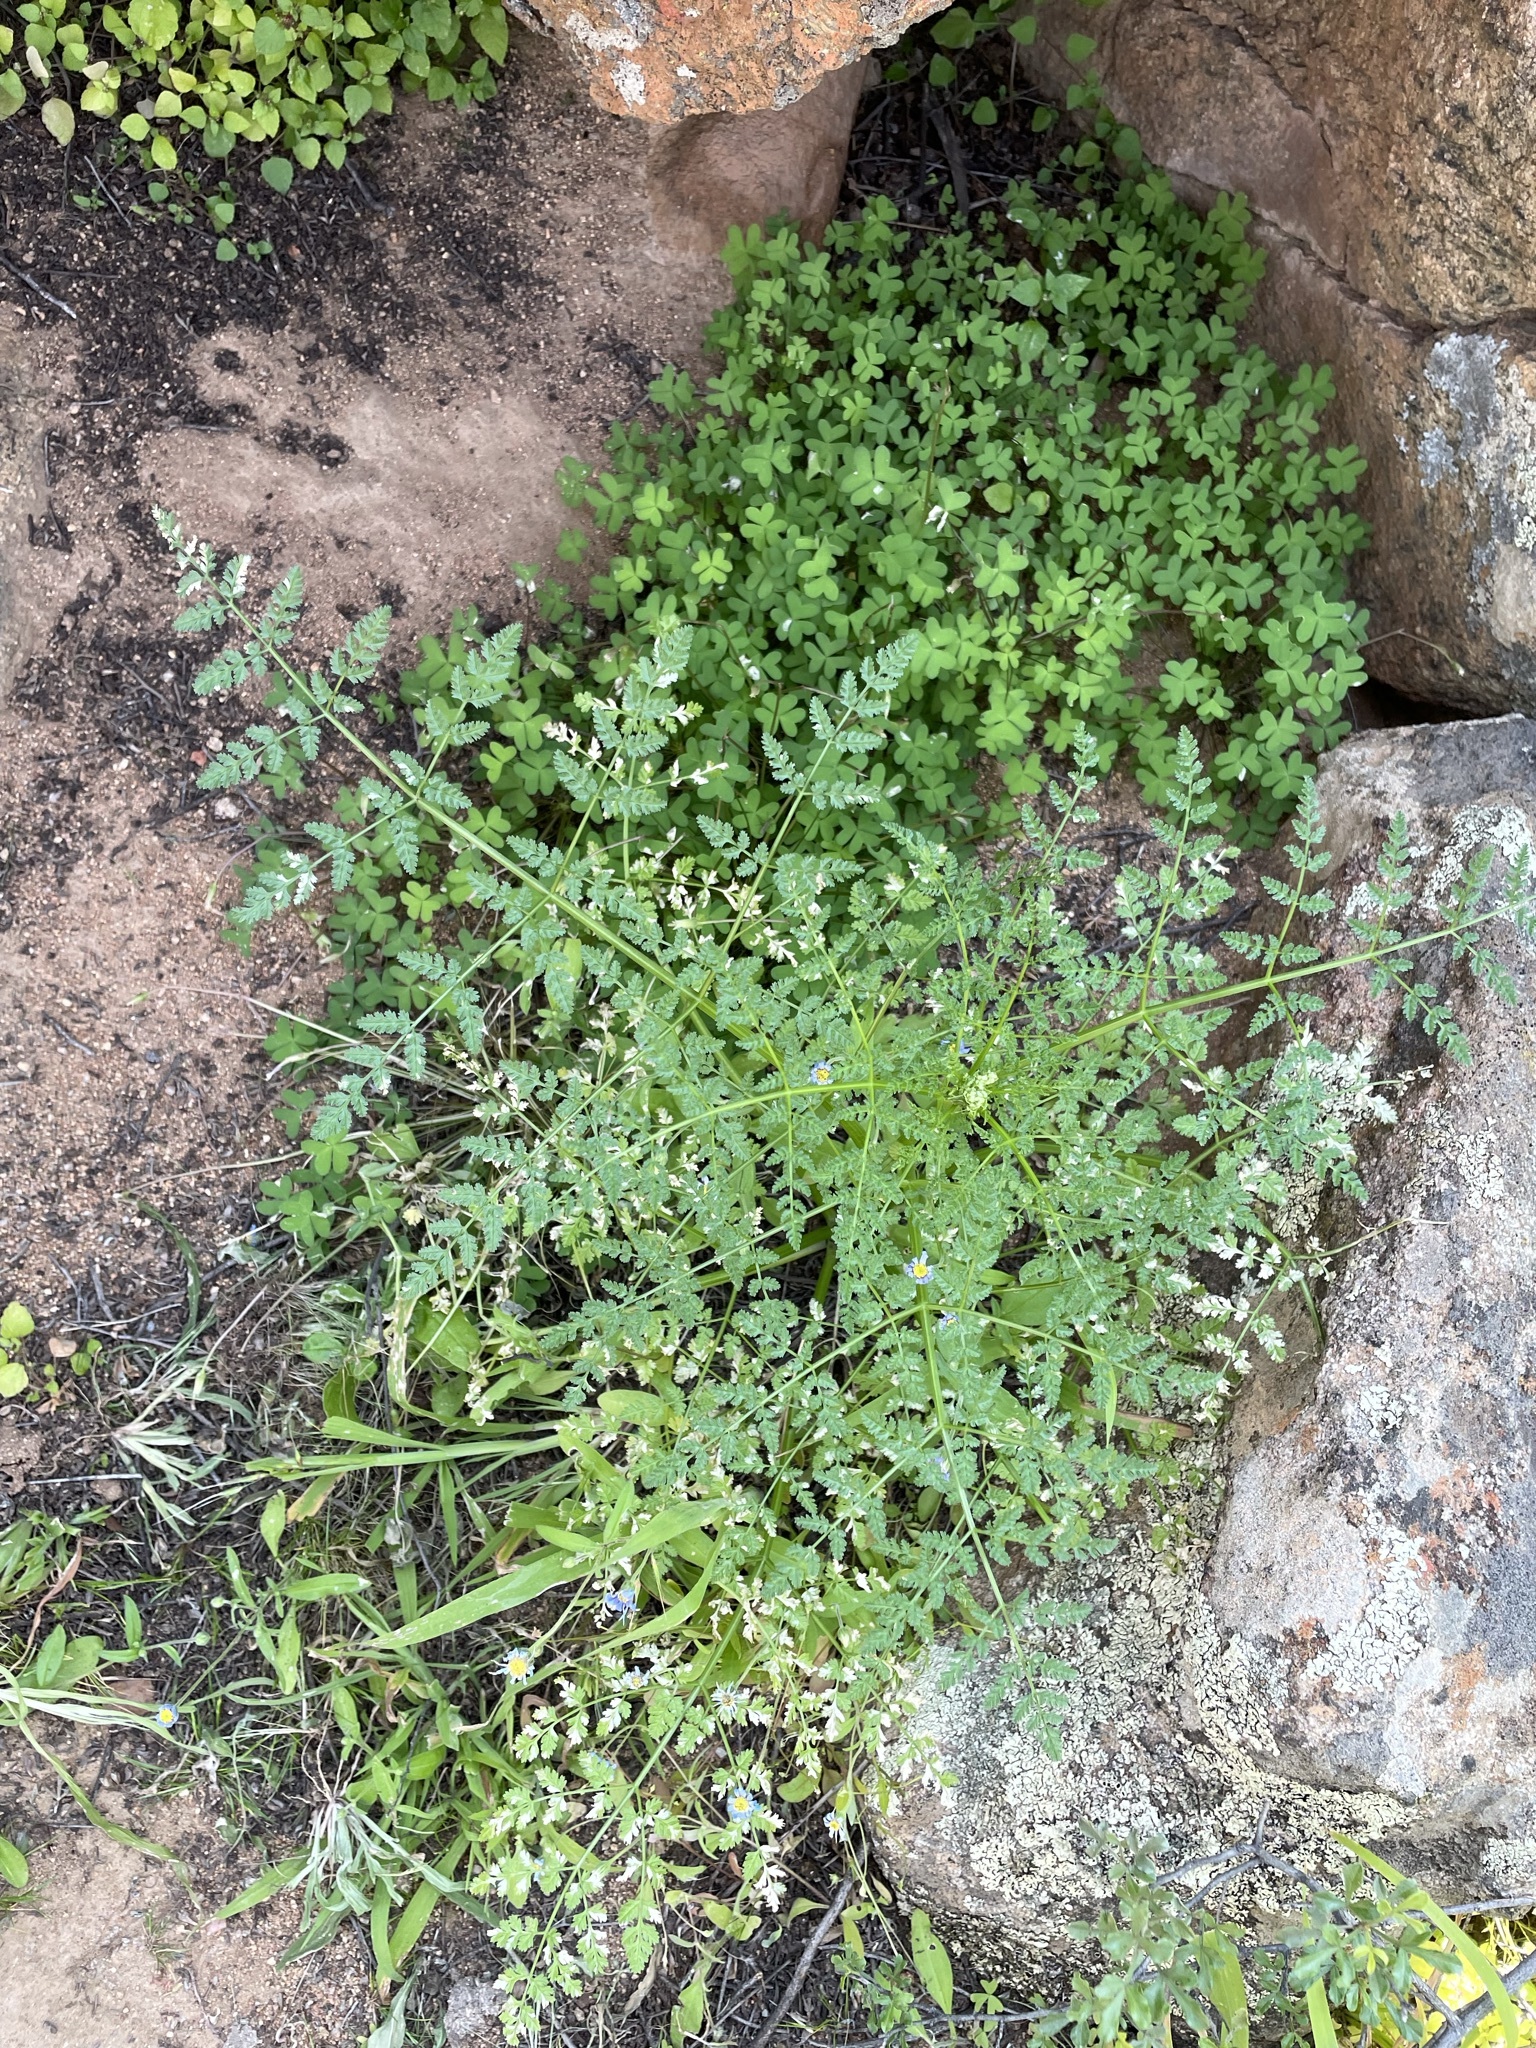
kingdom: Plantae
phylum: Tracheophyta
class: Magnoliopsida
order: Apiales
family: Apiaceae
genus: Conium
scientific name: Conium sphaerocarpum
